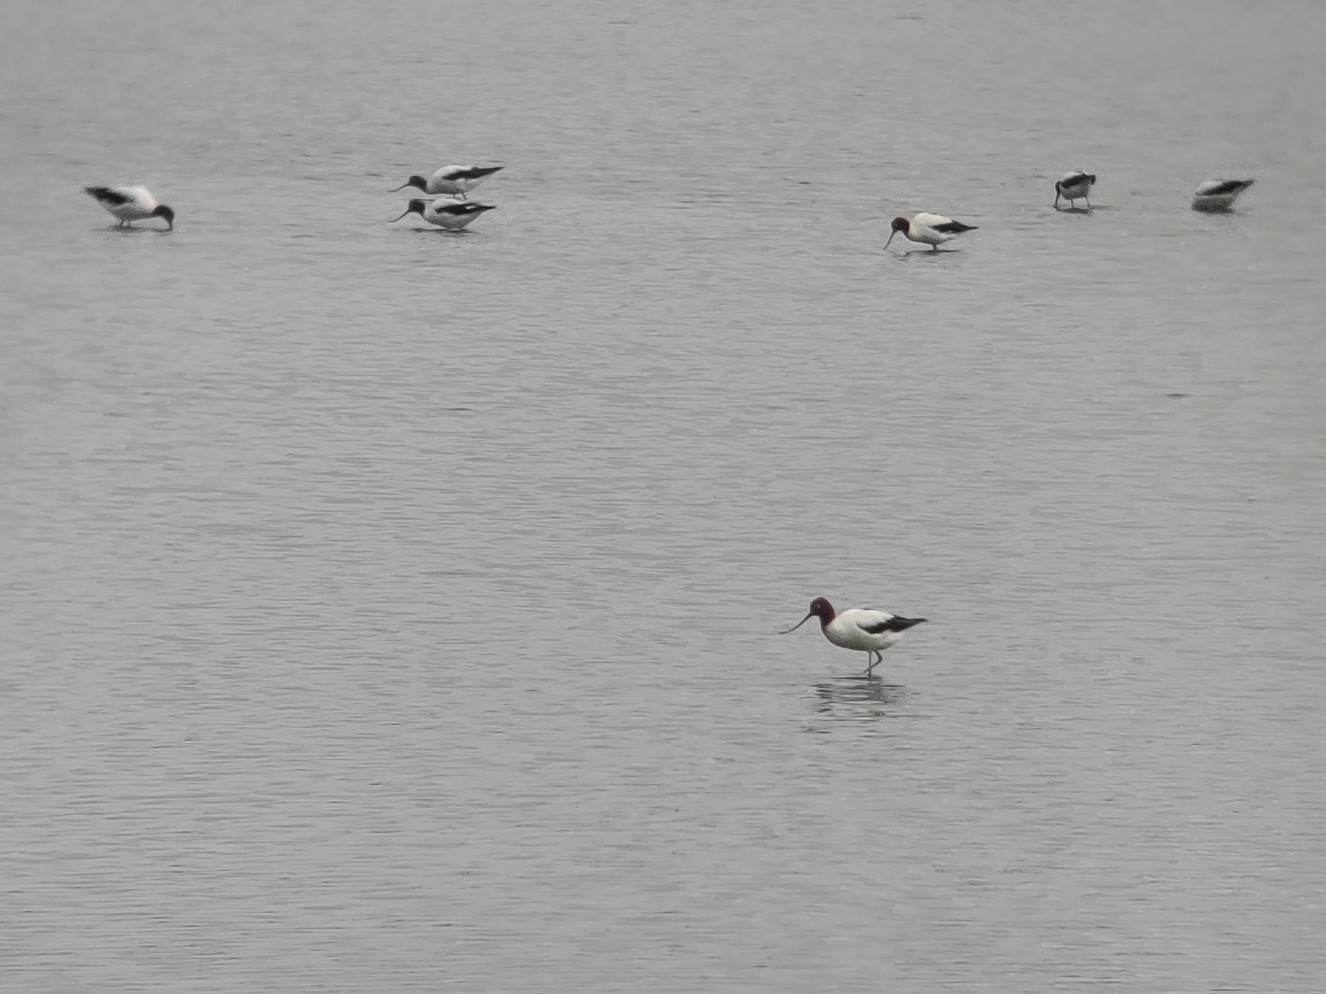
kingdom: Animalia
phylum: Chordata
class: Aves
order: Charadriiformes
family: Recurvirostridae
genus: Recurvirostra
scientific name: Recurvirostra novaehollandiae
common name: Red-necked avocet
